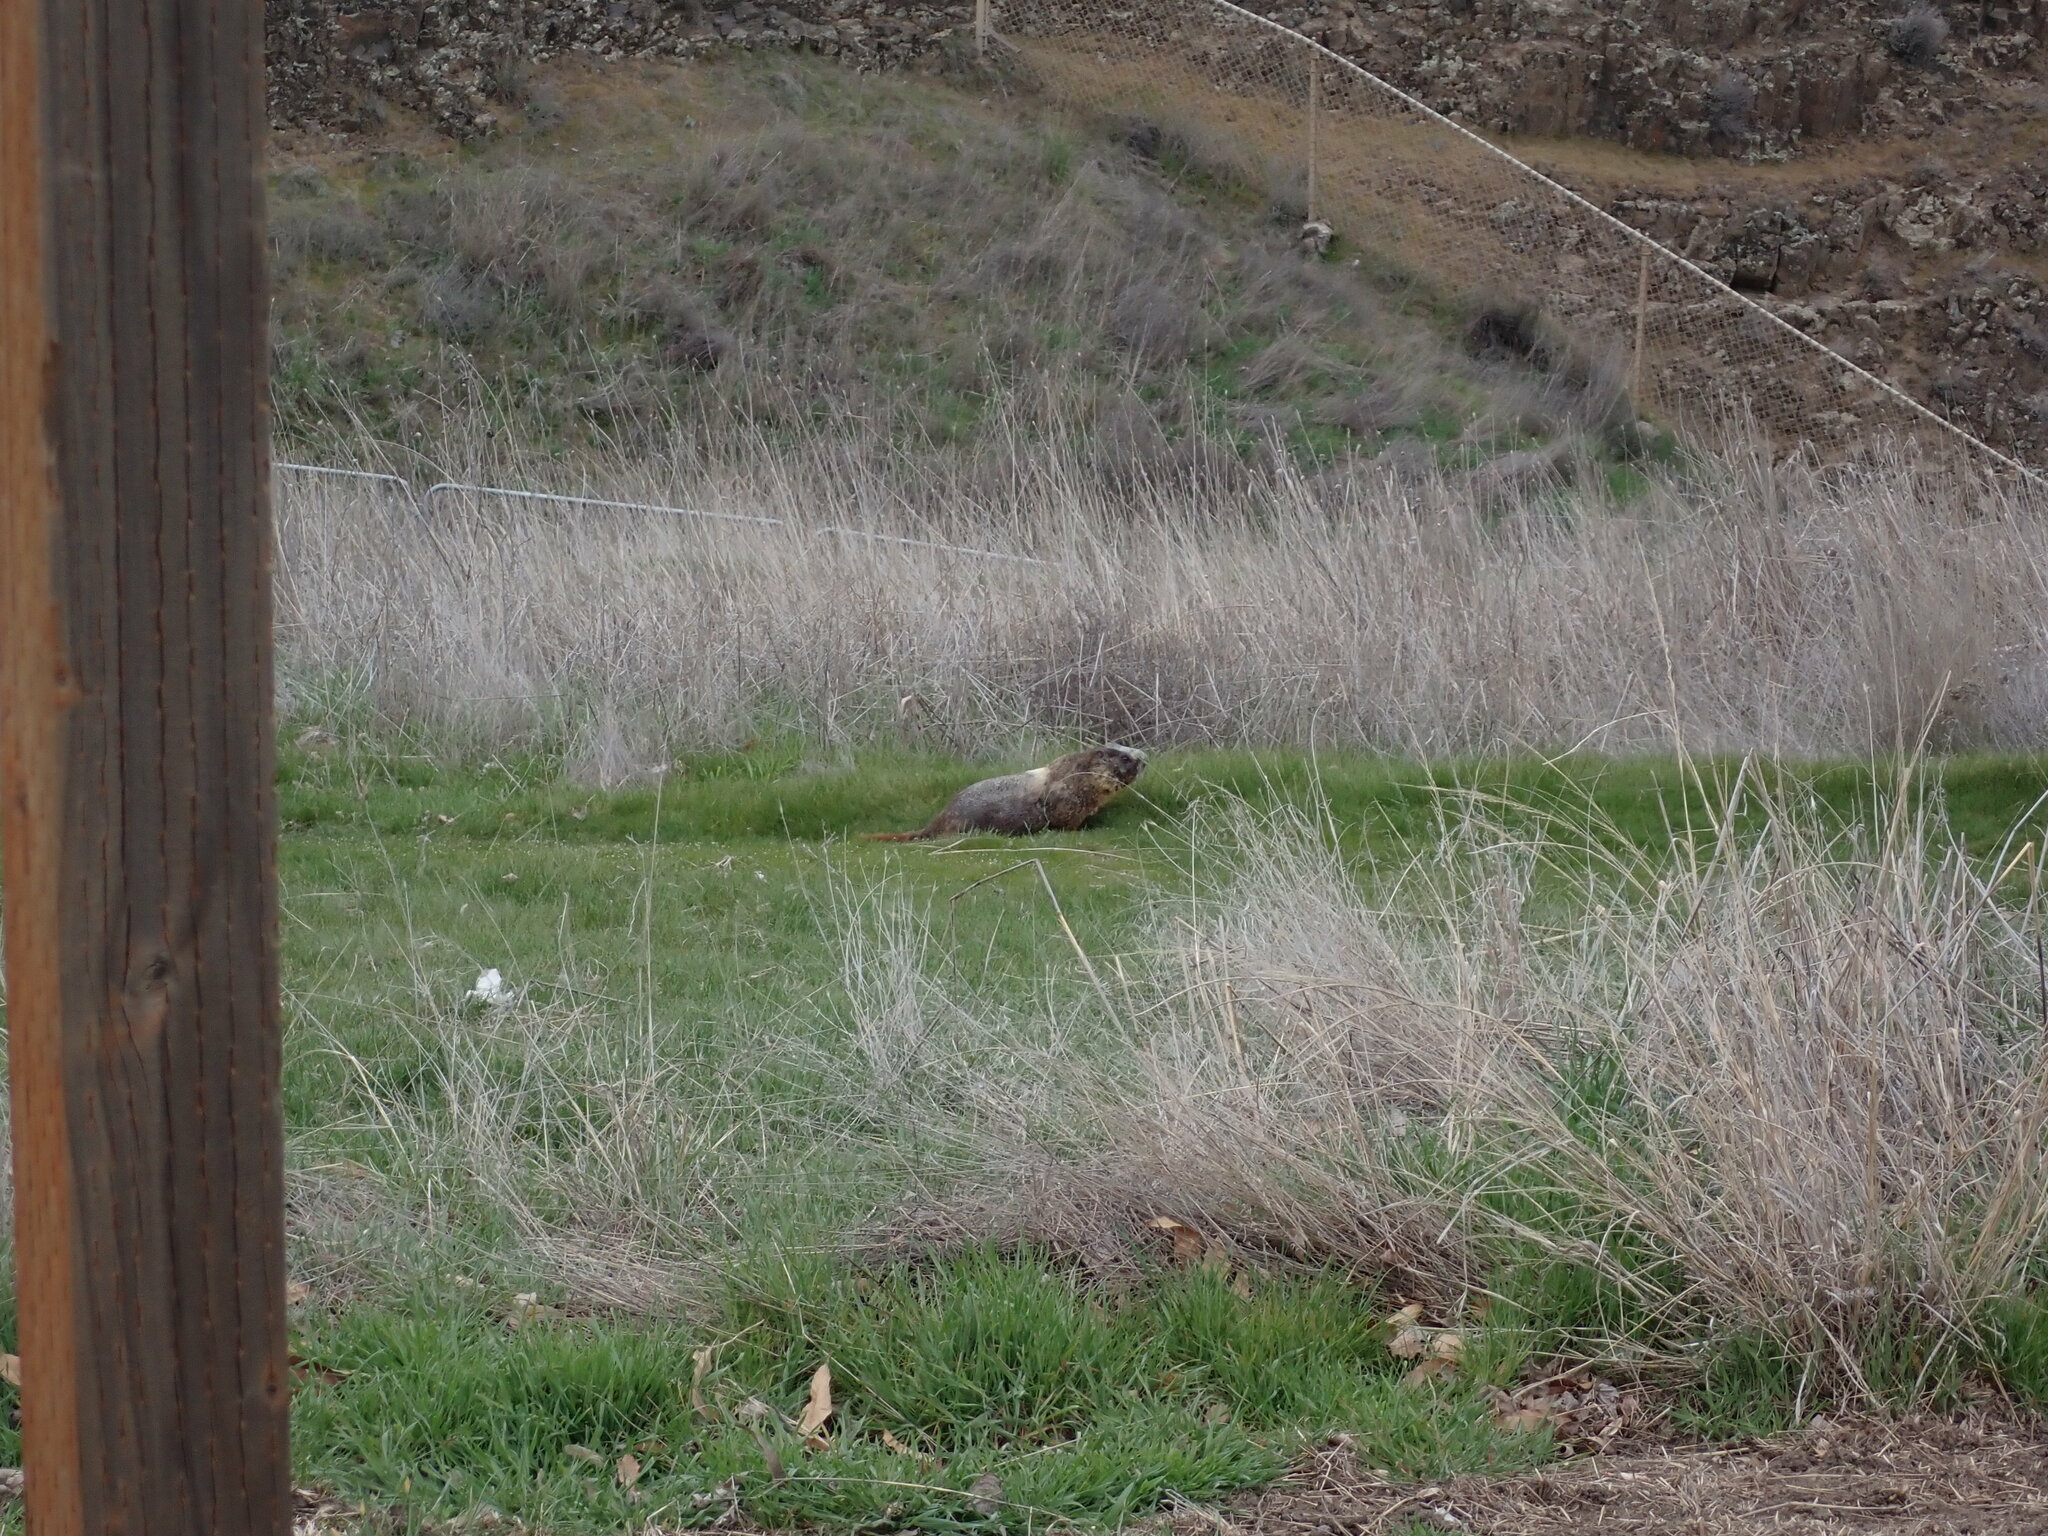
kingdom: Animalia
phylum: Chordata
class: Mammalia
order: Rodentia
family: Sciuridae
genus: Marmota
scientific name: Marmota flaviventris
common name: Yellow-bellied marmot
